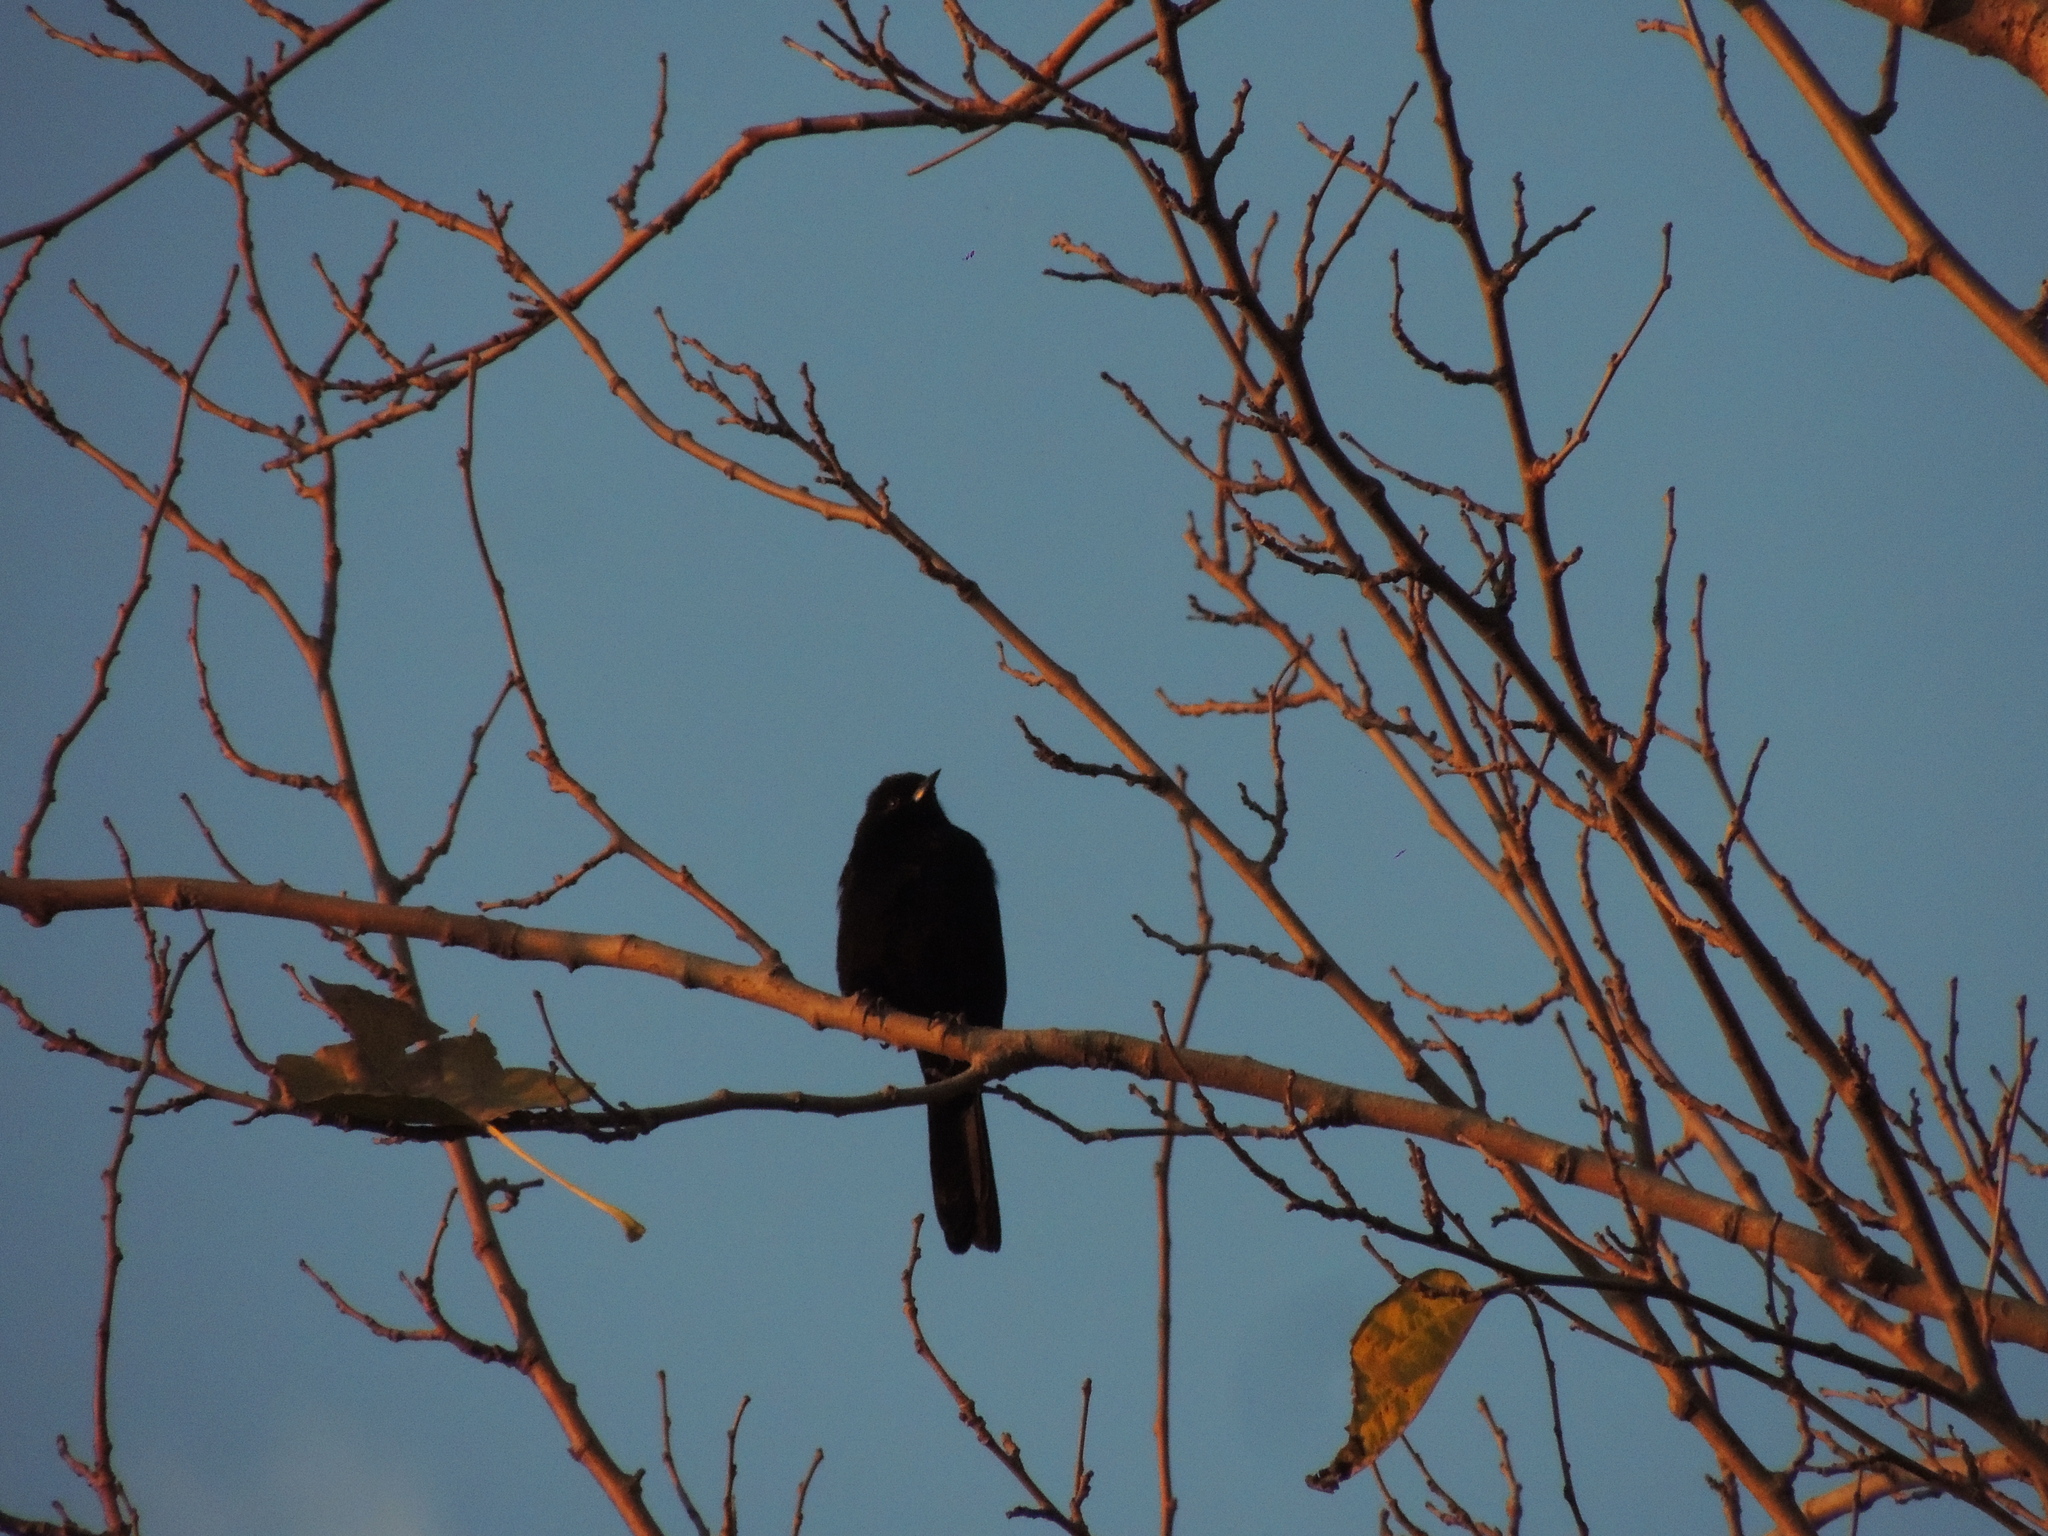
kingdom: Animalia
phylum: Chordata
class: Aves
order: Passeriformes
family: Icteridae
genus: Icterus
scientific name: Icterus cayanensis
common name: Epaulet oriole
